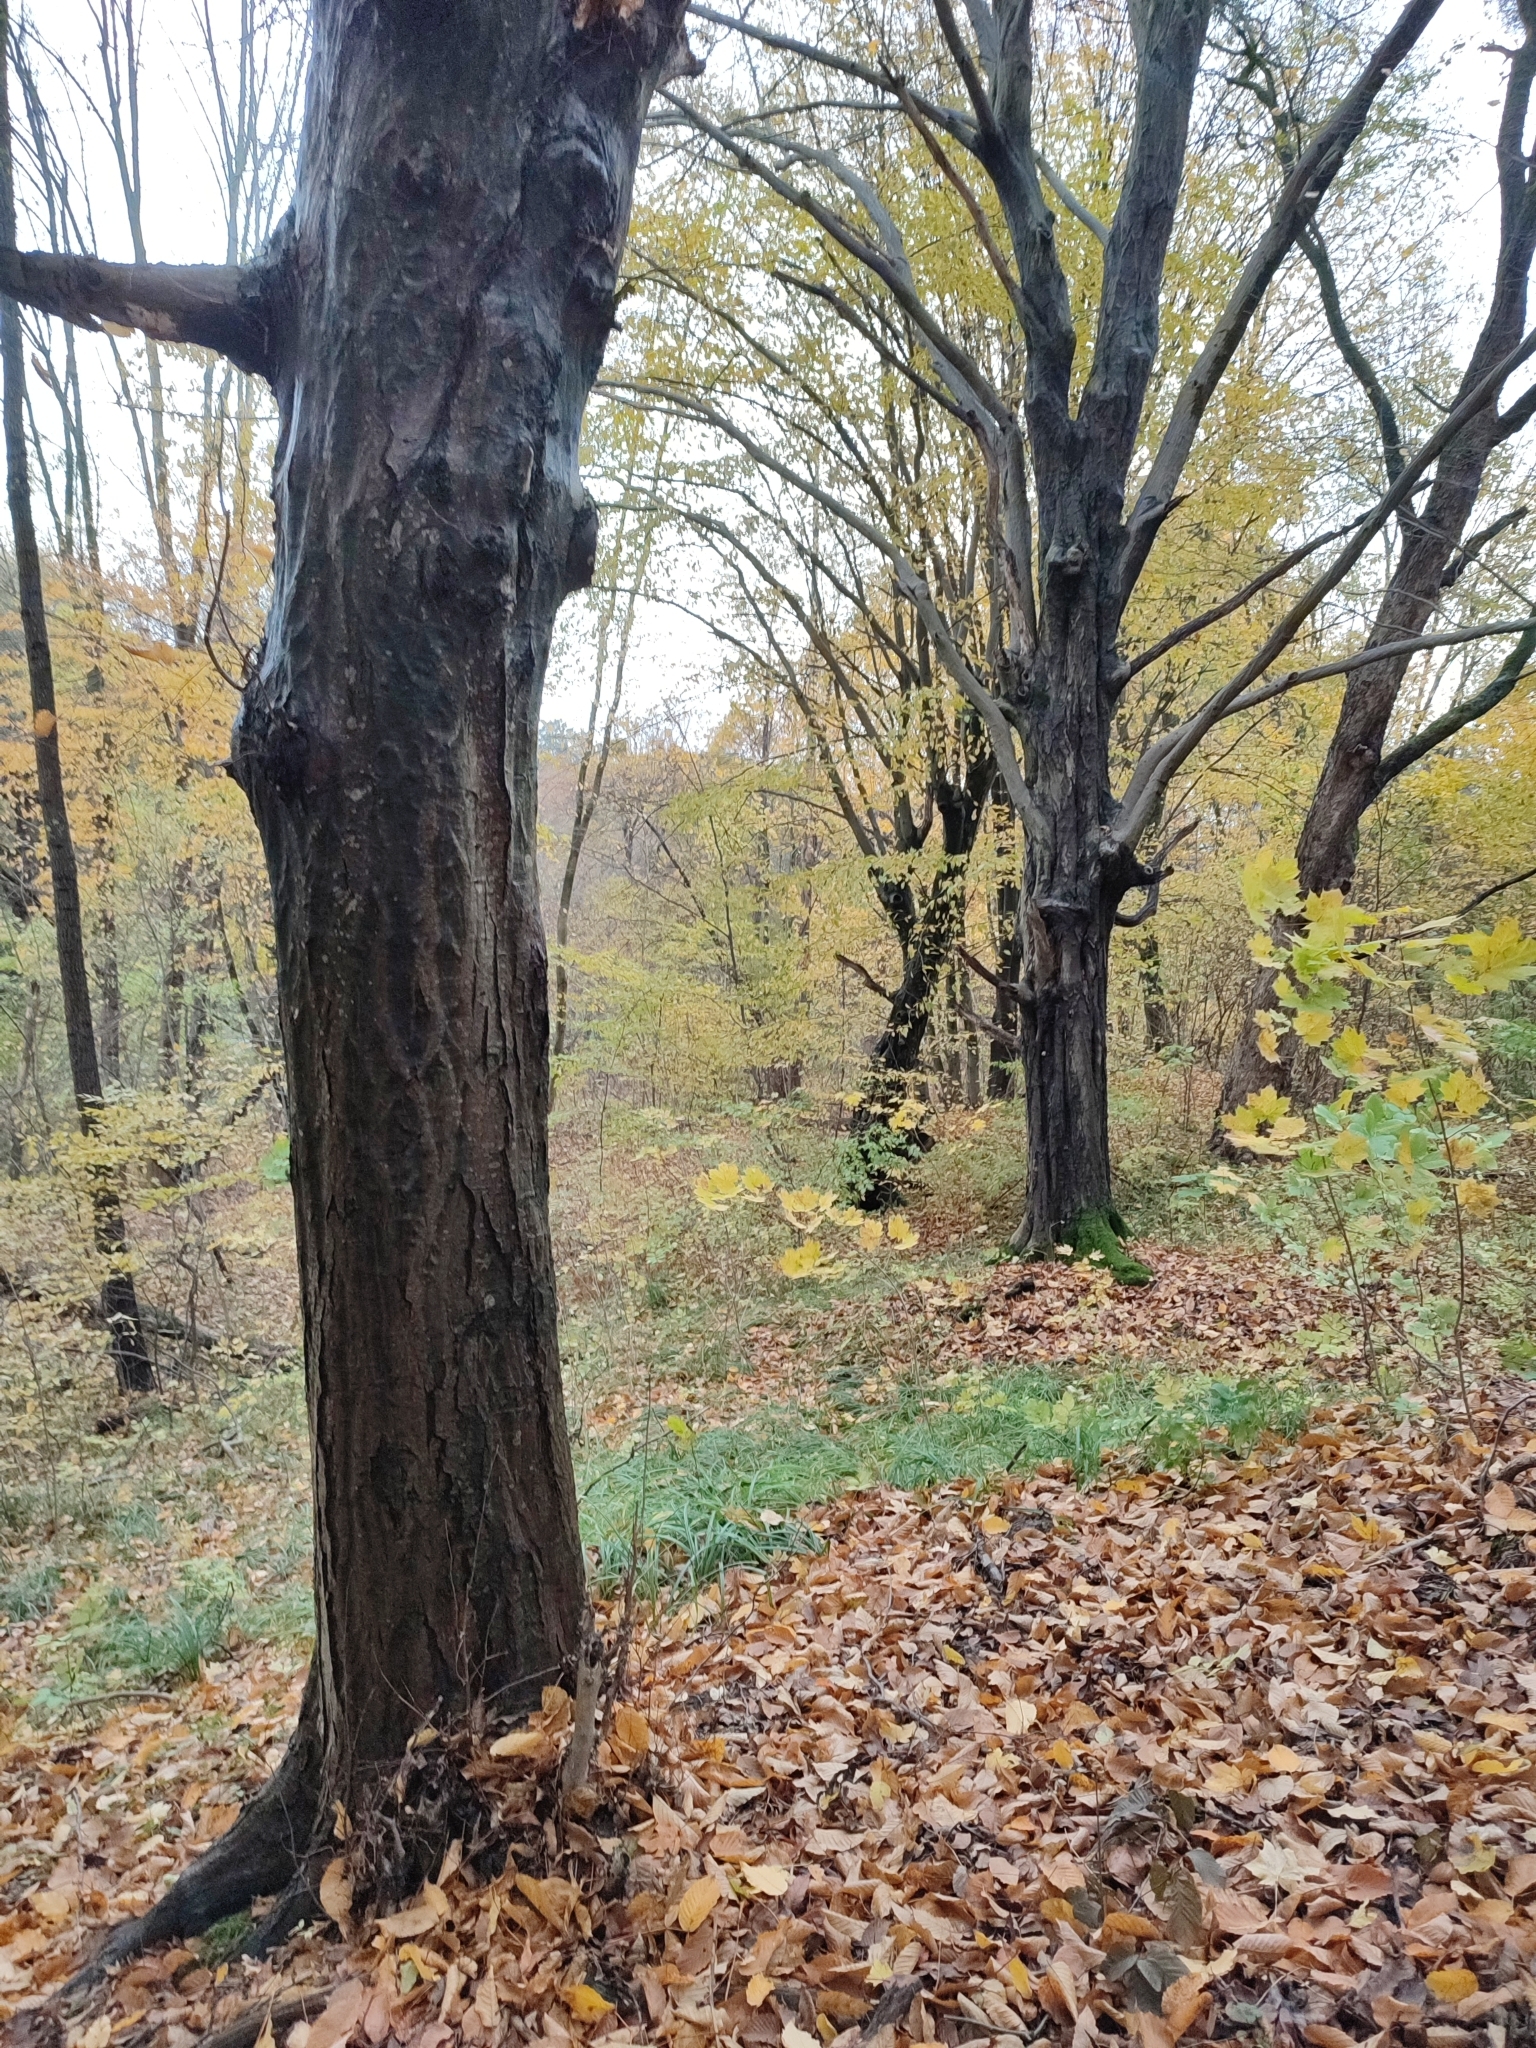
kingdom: Plantae
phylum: Tracheophyta
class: Magnoliopsida
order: Fagales
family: Betulaceae
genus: Carpinus
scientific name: Carpinus betulus
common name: Hornbeam
